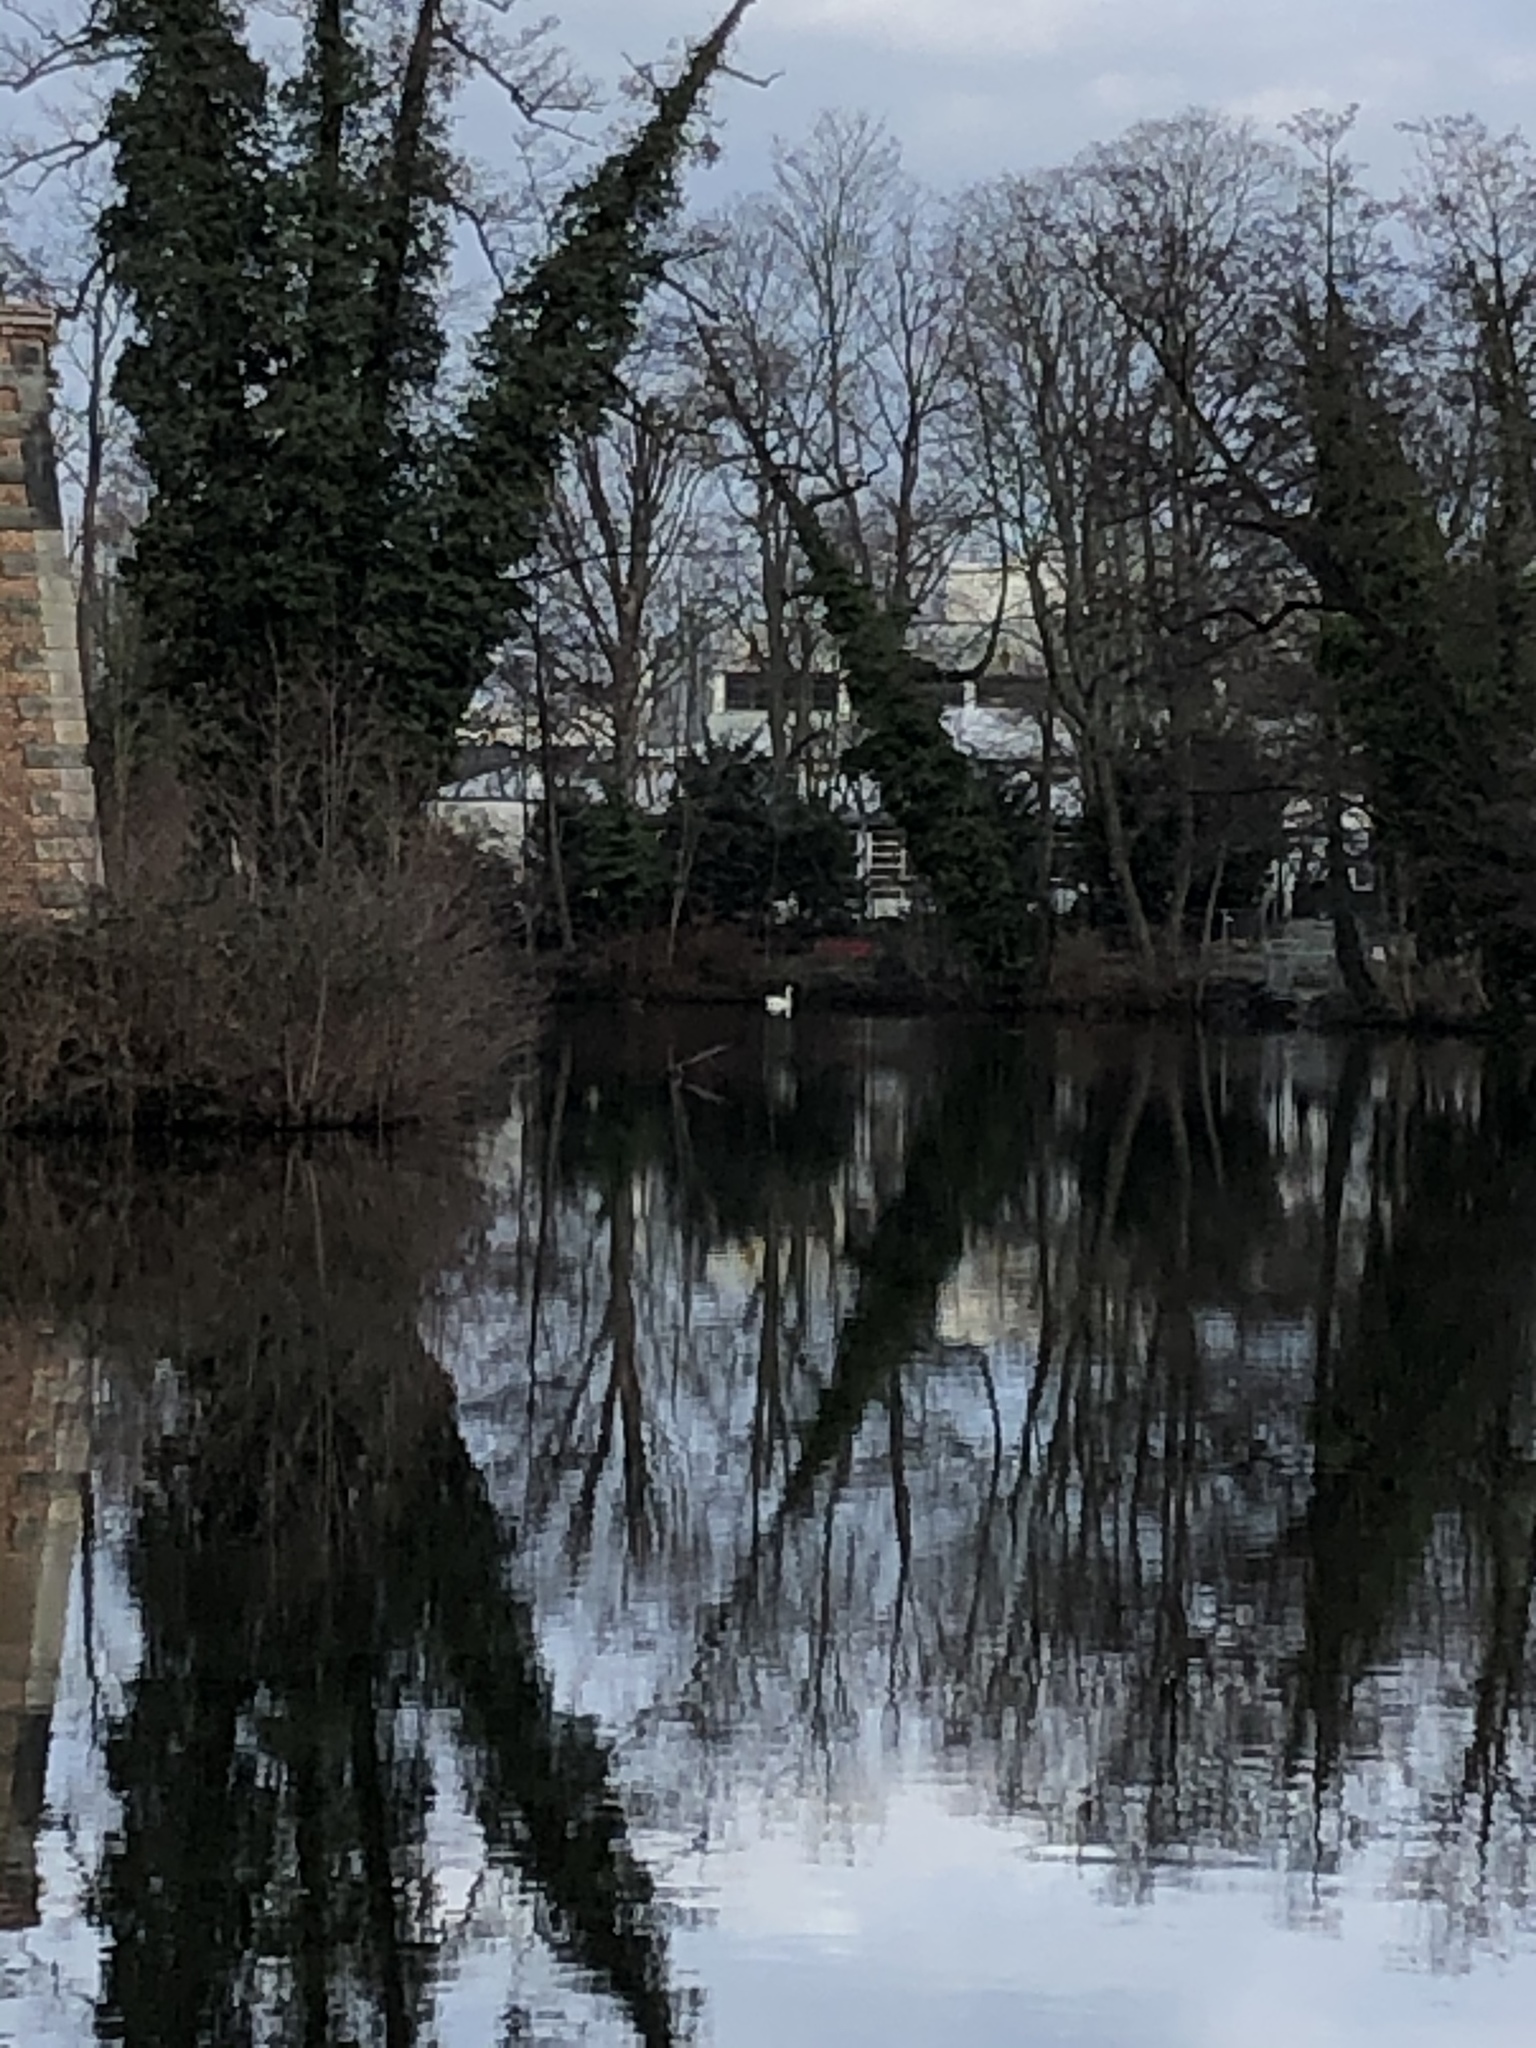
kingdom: Animalia
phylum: Chordata
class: Aves
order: Anseriformes
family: Anatidae
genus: Anser
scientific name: Anser anser
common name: Greylag goose
